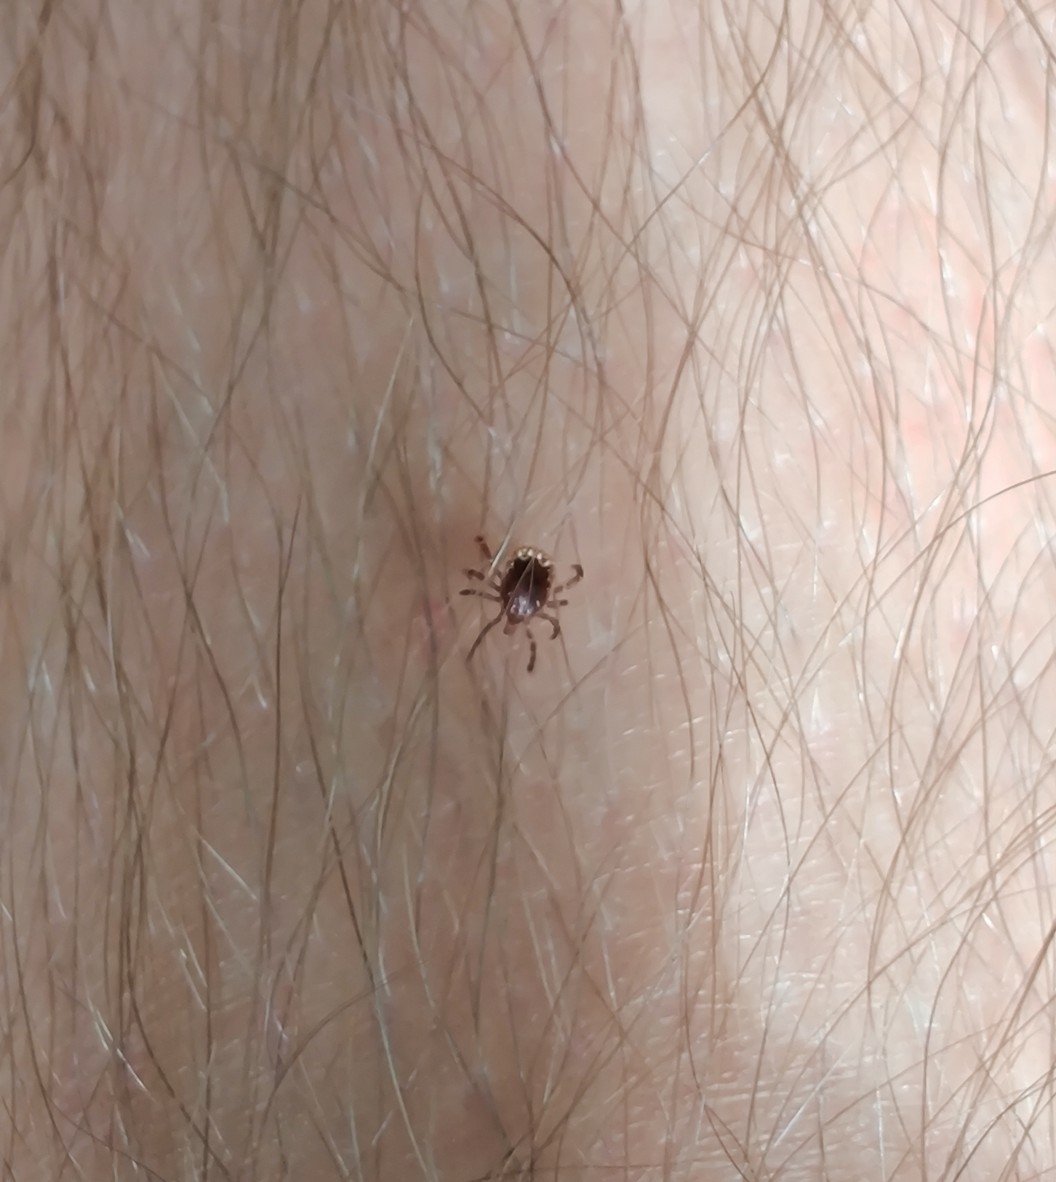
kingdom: Animalia
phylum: Arthropoda
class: Arachnida
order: Ixodida
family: Ixodidae
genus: Amblyomma
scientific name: Amblyomma americanum
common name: Lone star tick
